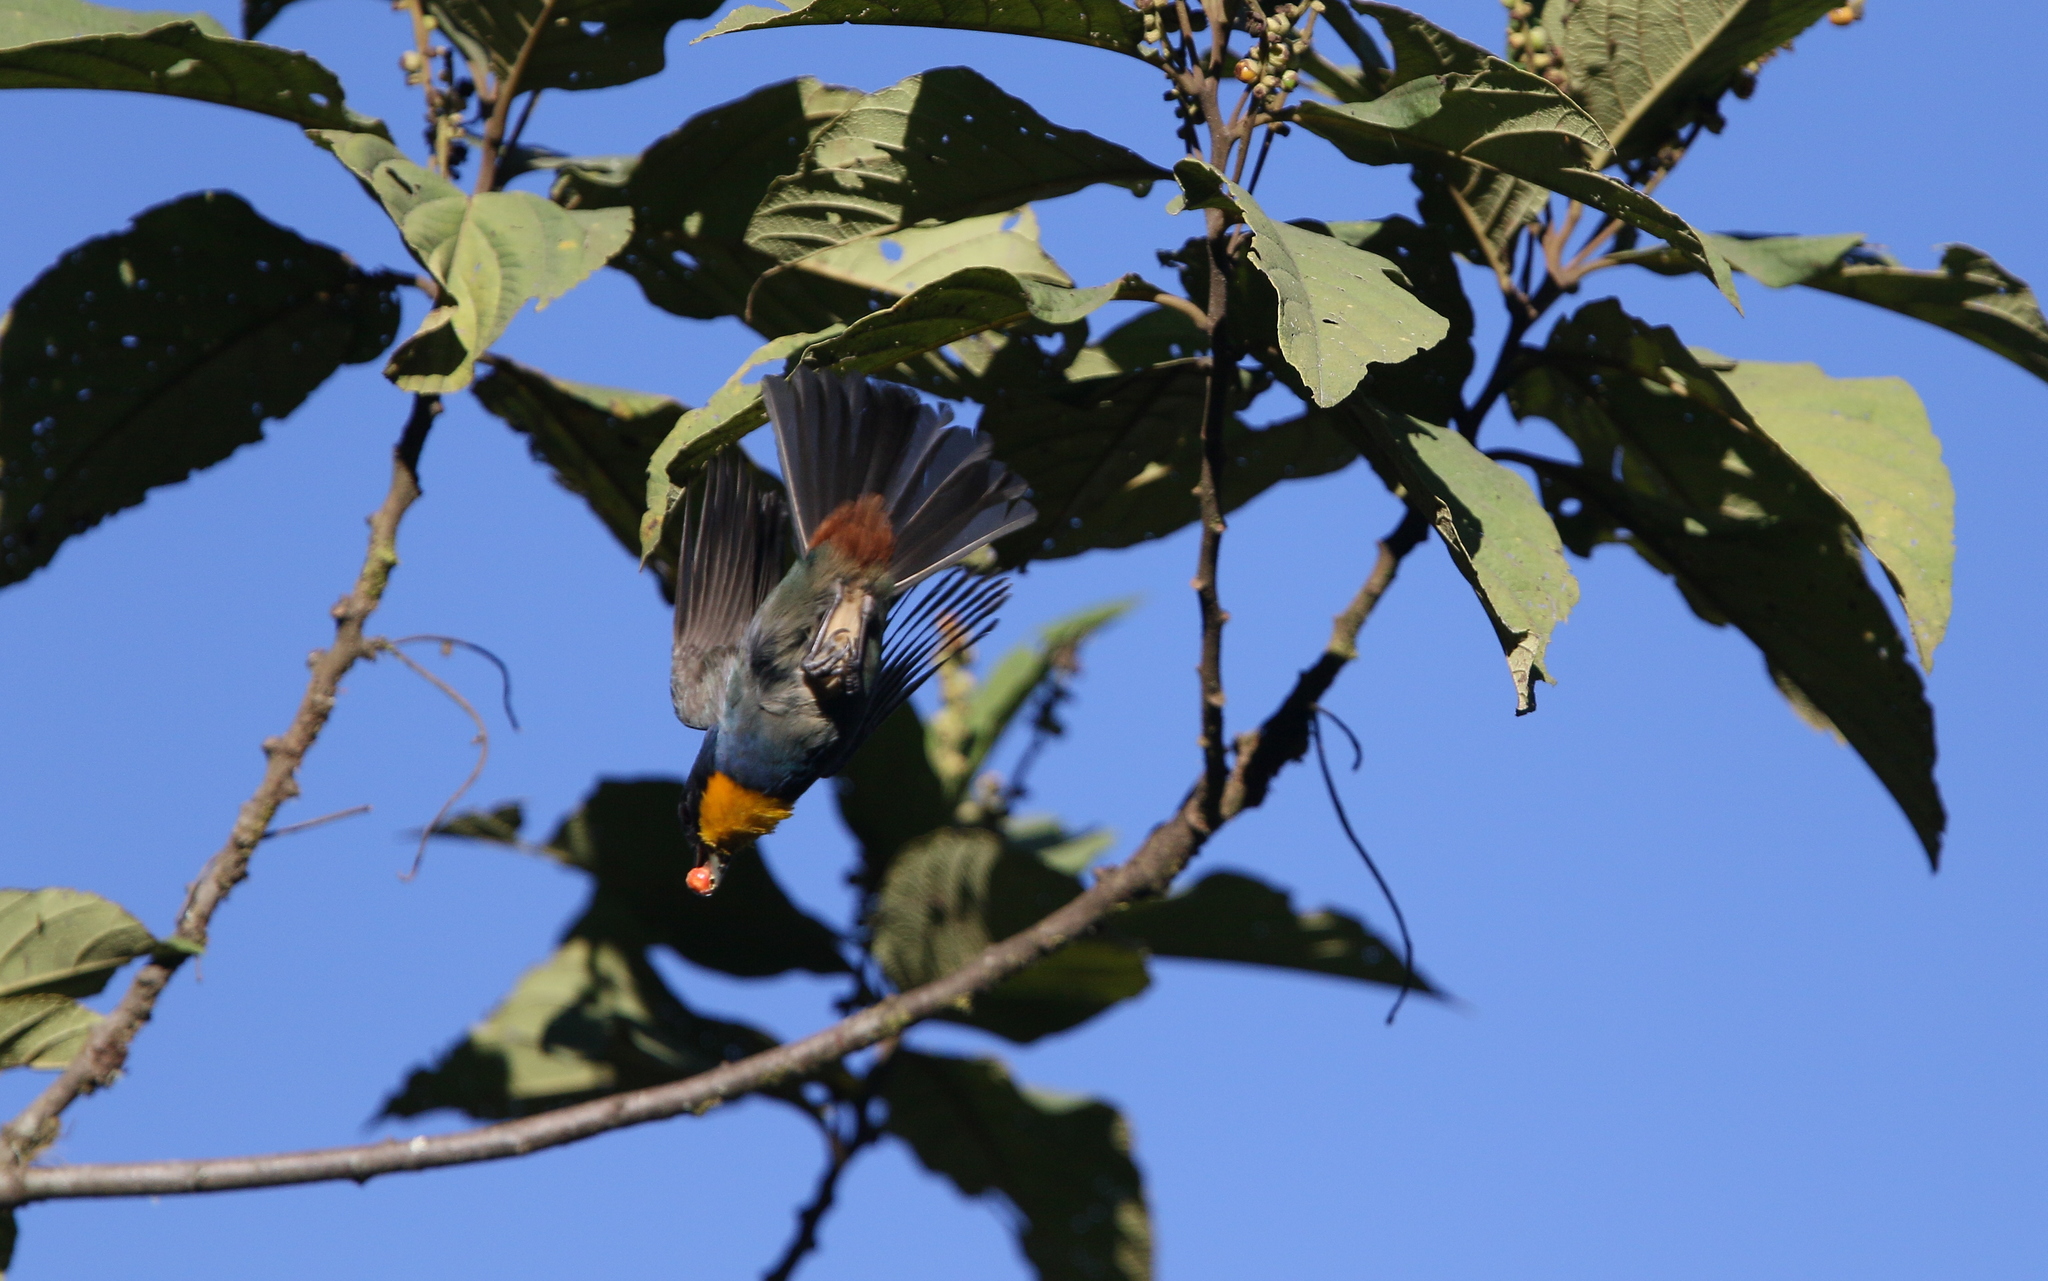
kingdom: Animalia
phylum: Chordata
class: Aves
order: Passeriformes
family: Thraupidae
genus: Iridosornis
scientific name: Iridosornis porphyrocephalus
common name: Purplish-mantled tanager
